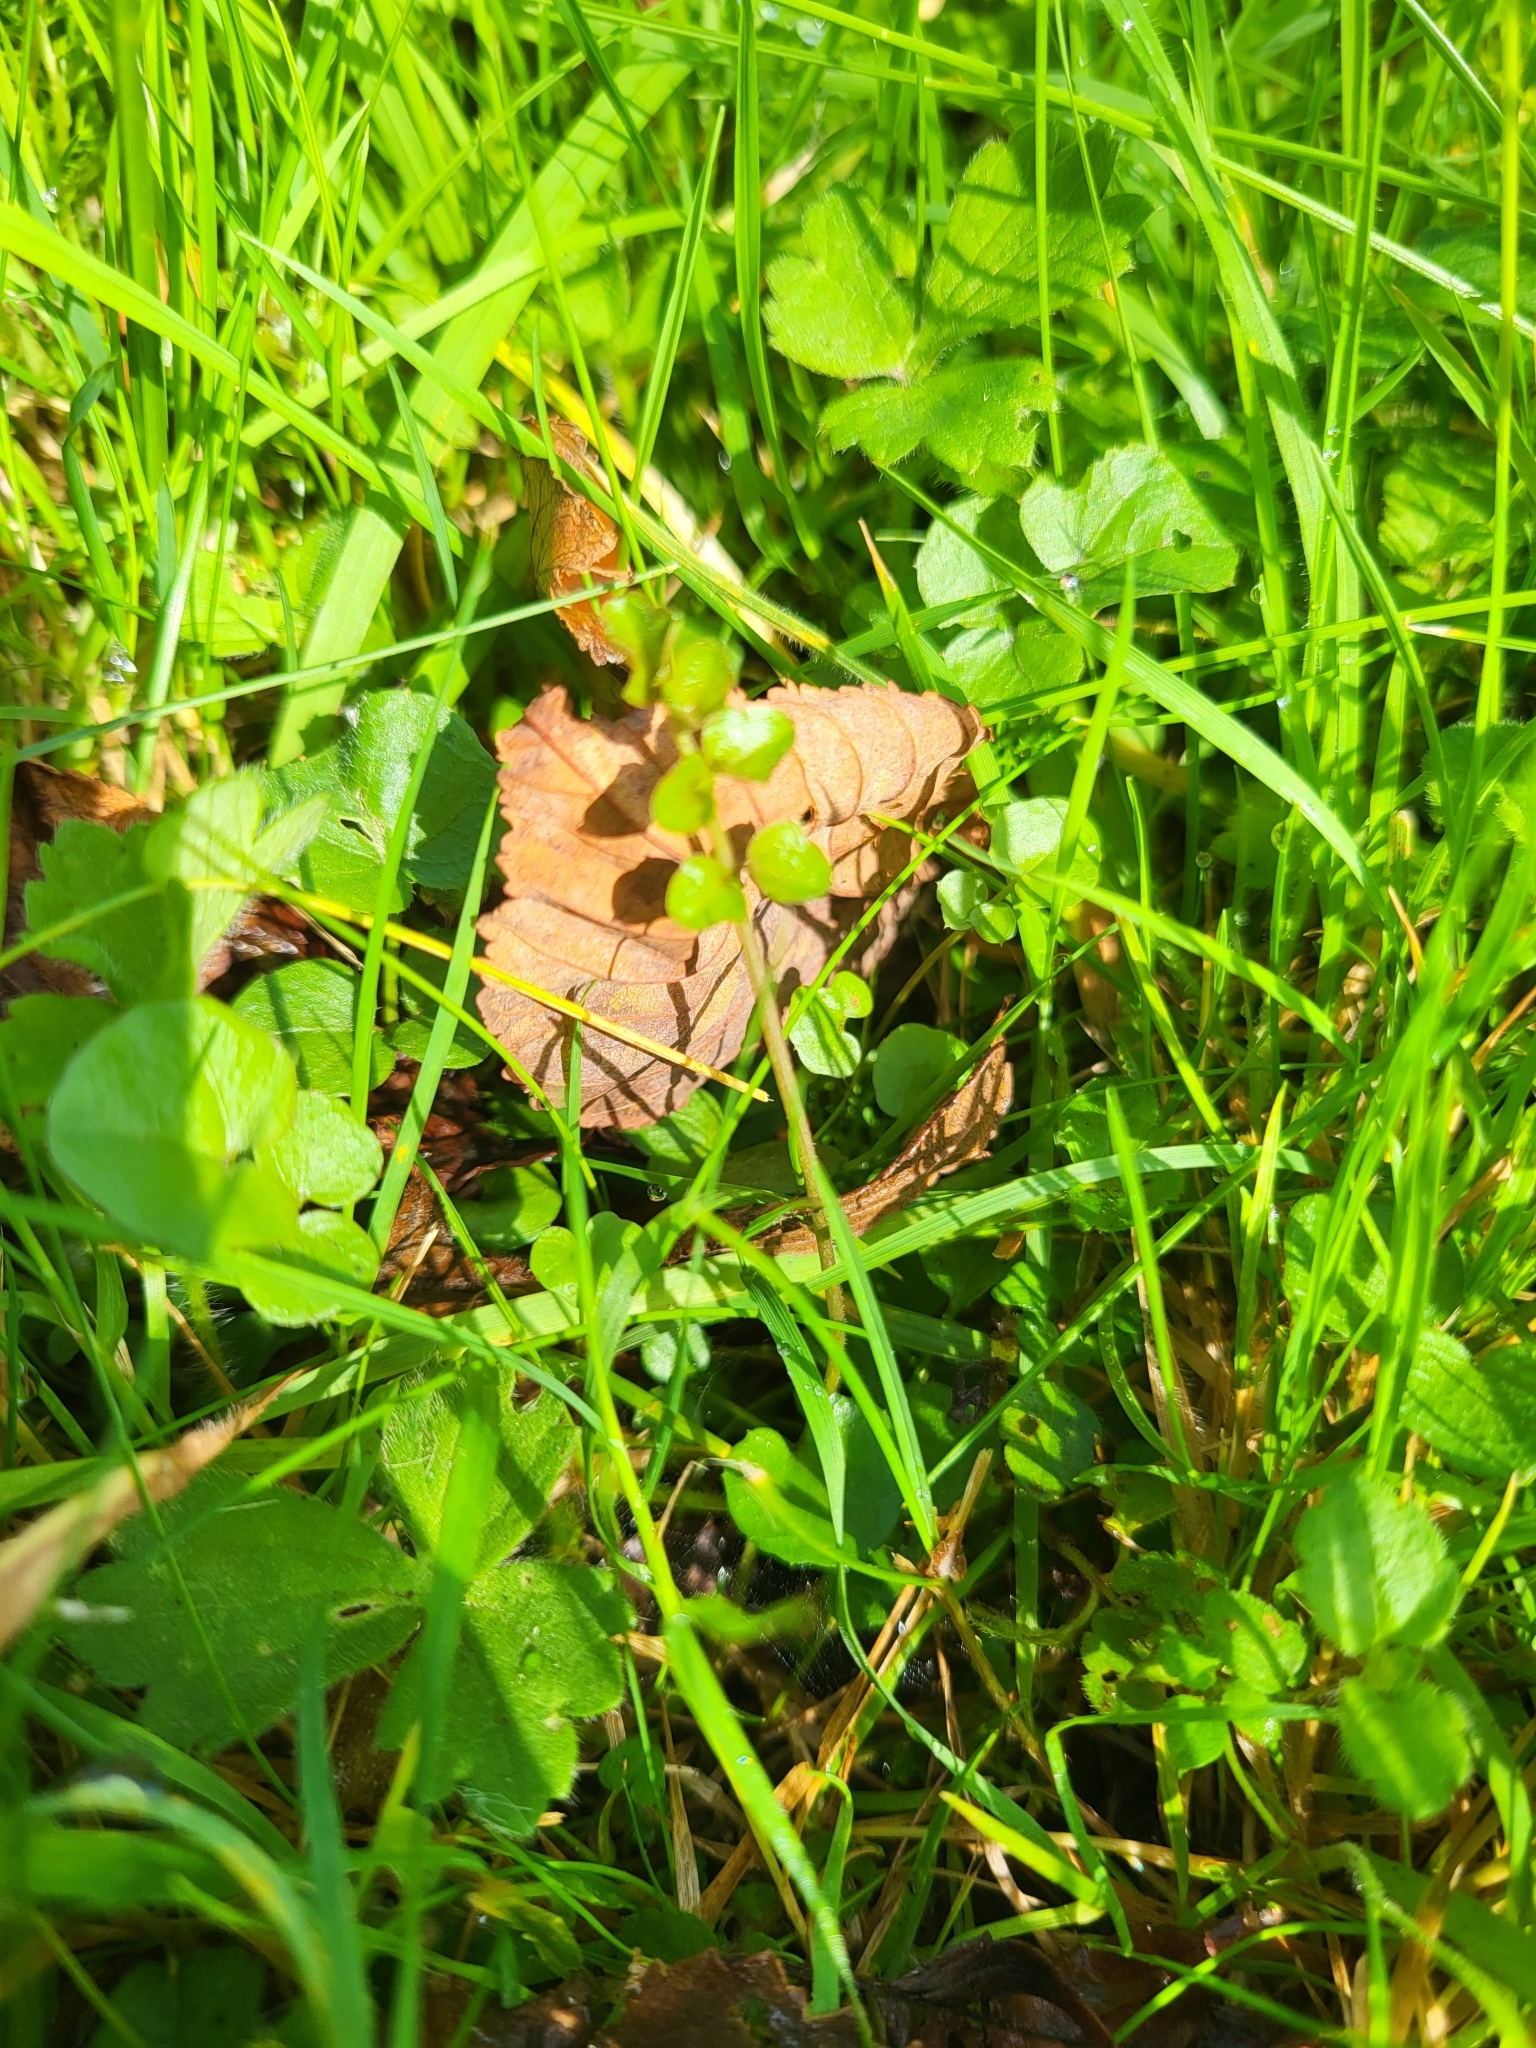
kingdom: Plantae
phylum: Tracheophyta
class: Magnoliopsida
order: Brassicales
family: Brassicaceae
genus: Cardamine
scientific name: Cardamine pratensis
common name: Cuckoo flower
